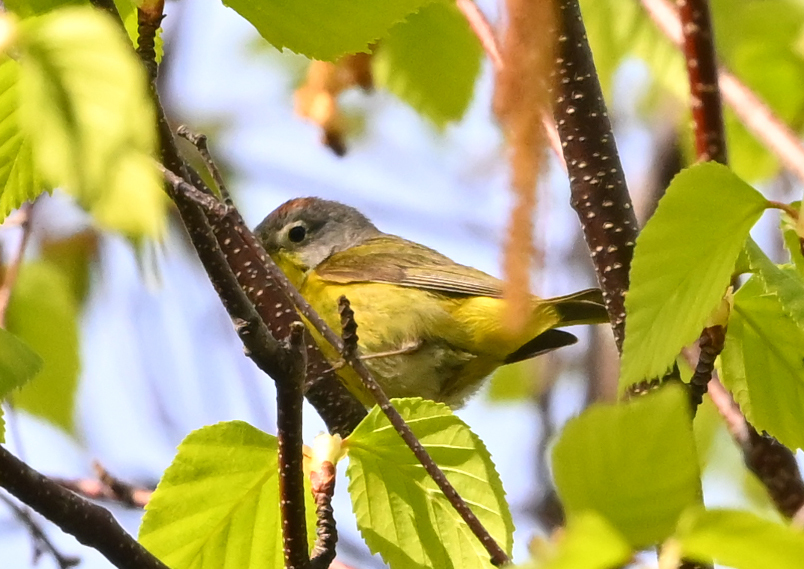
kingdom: Animalia
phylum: Chordata
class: Aves
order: Passeriformes
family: Parulidae
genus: Leiothlypis
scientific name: Leiothlypis ruficapilla
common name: Nashville warbler
